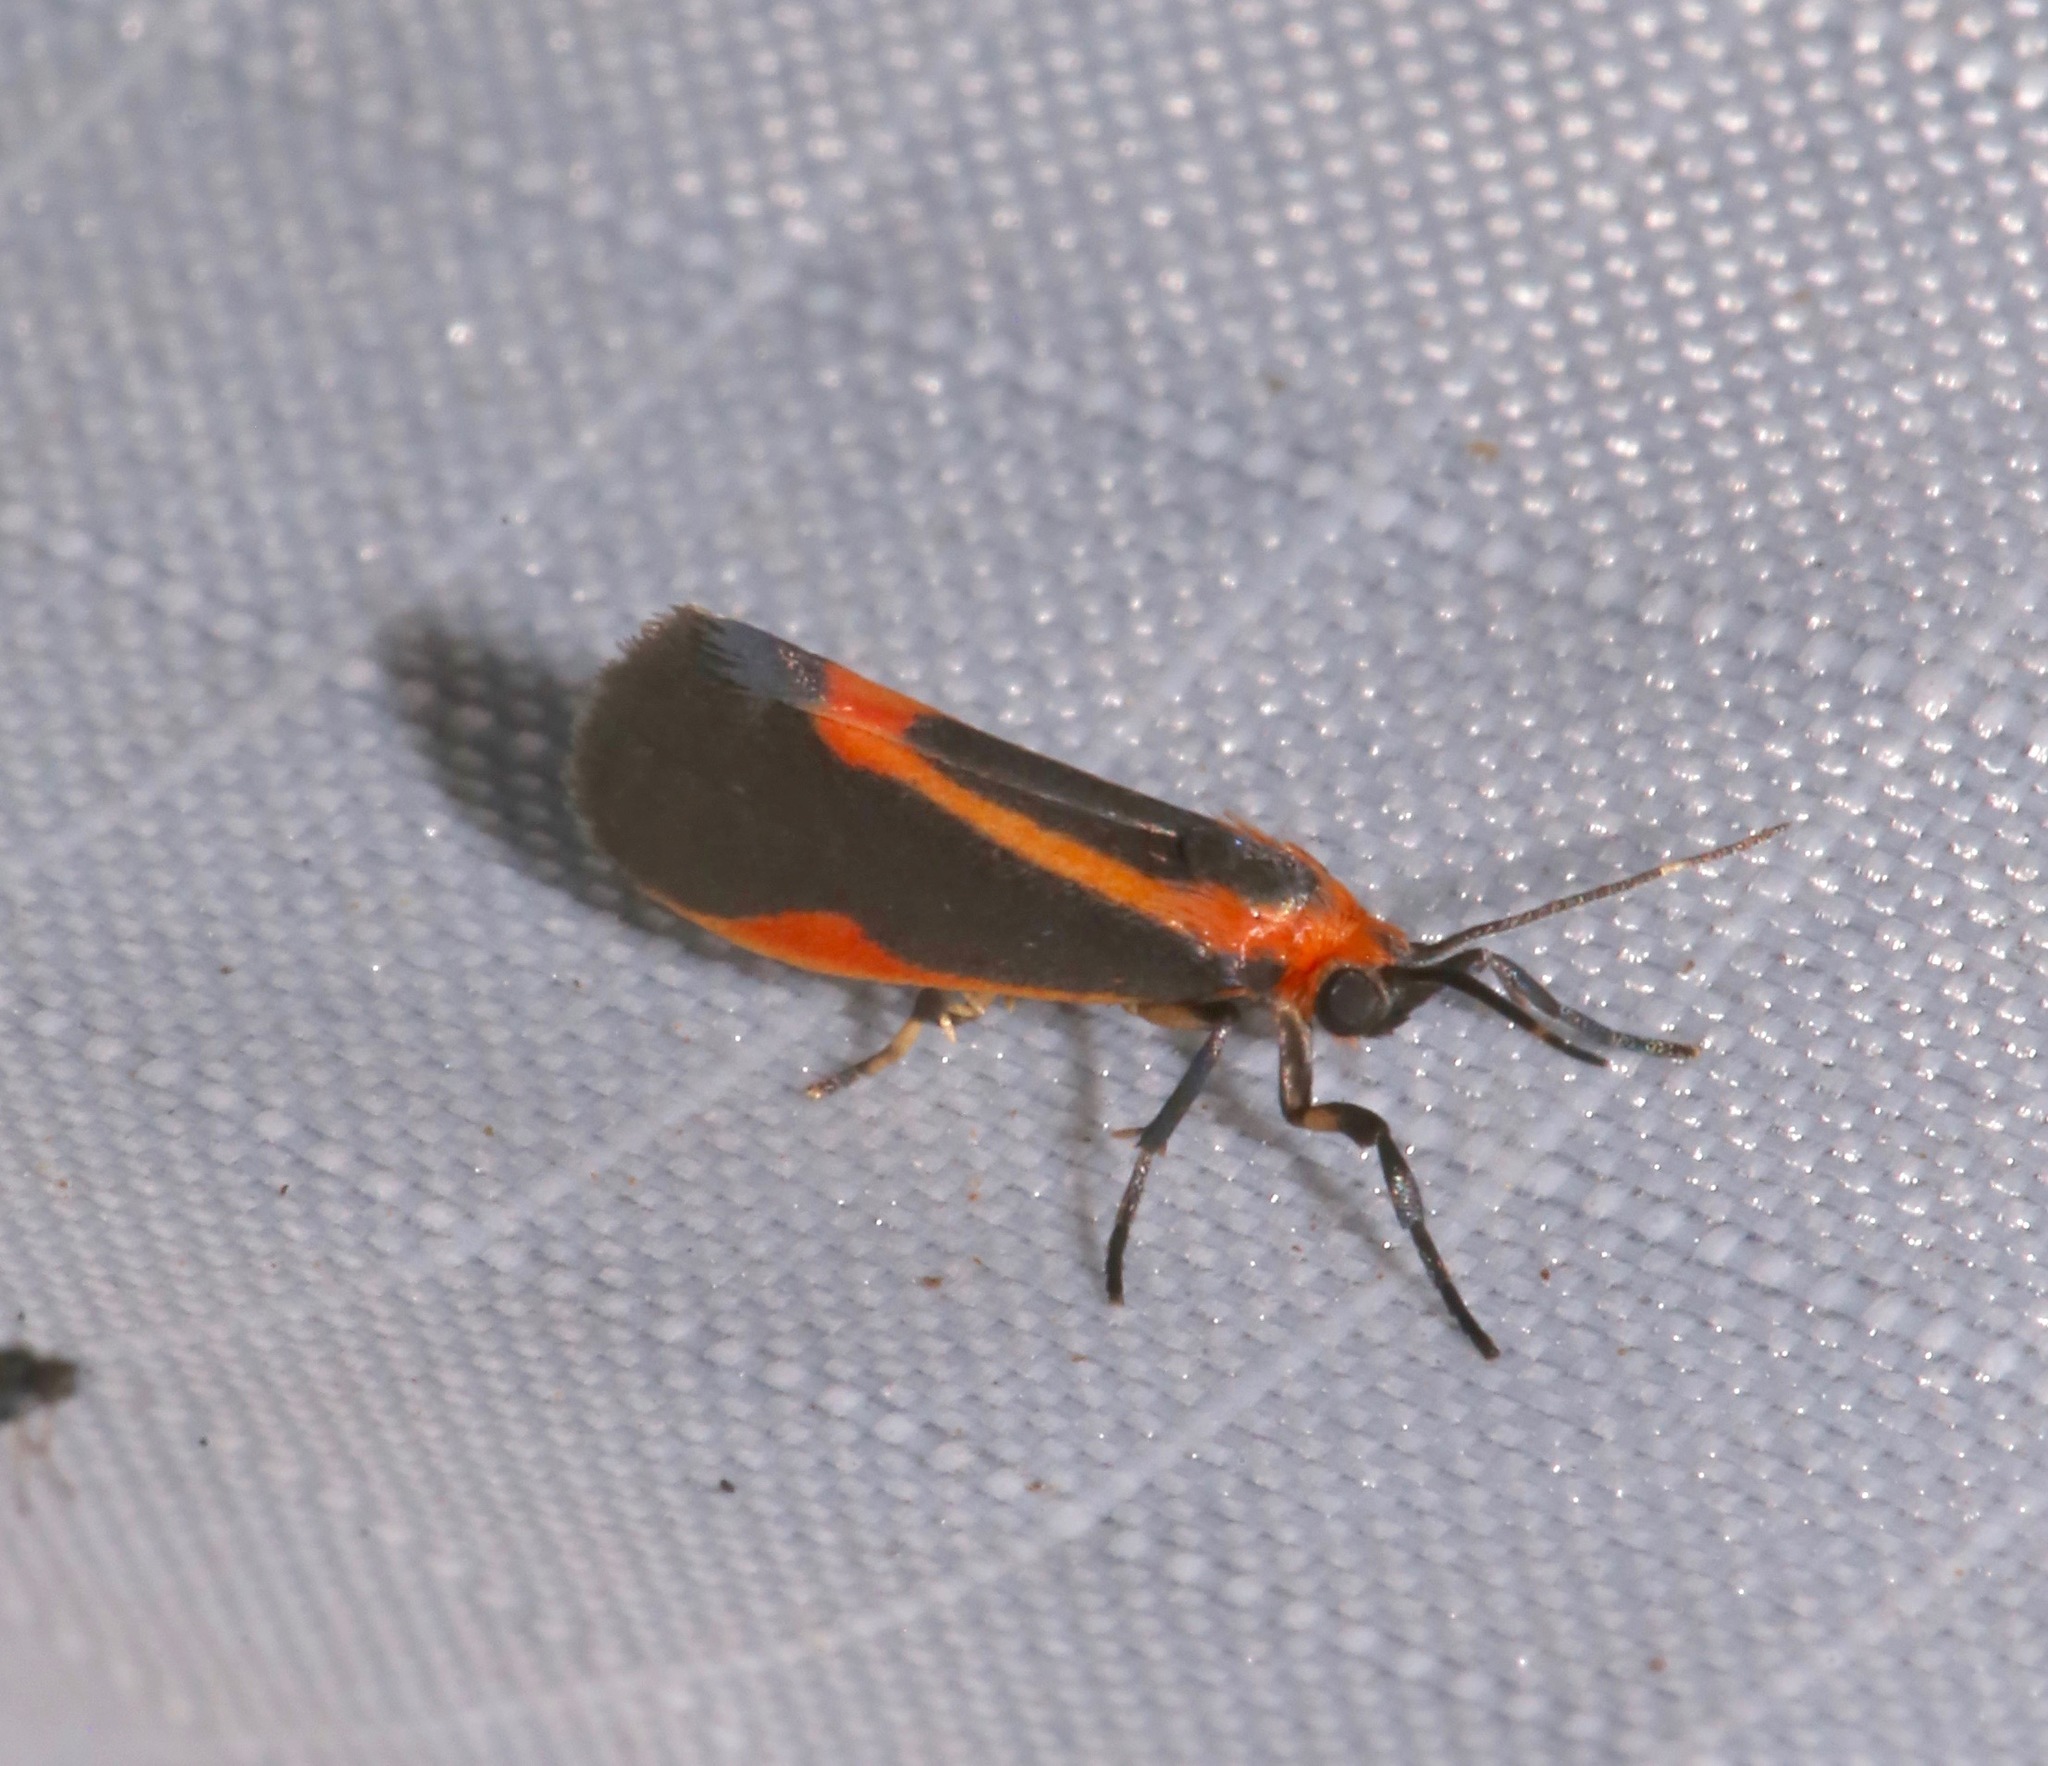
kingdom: Animalia
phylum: Arthropoda
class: Insecta
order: Lepidoptera
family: Erebidae
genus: Cisthene
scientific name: Cisthene subjecta
